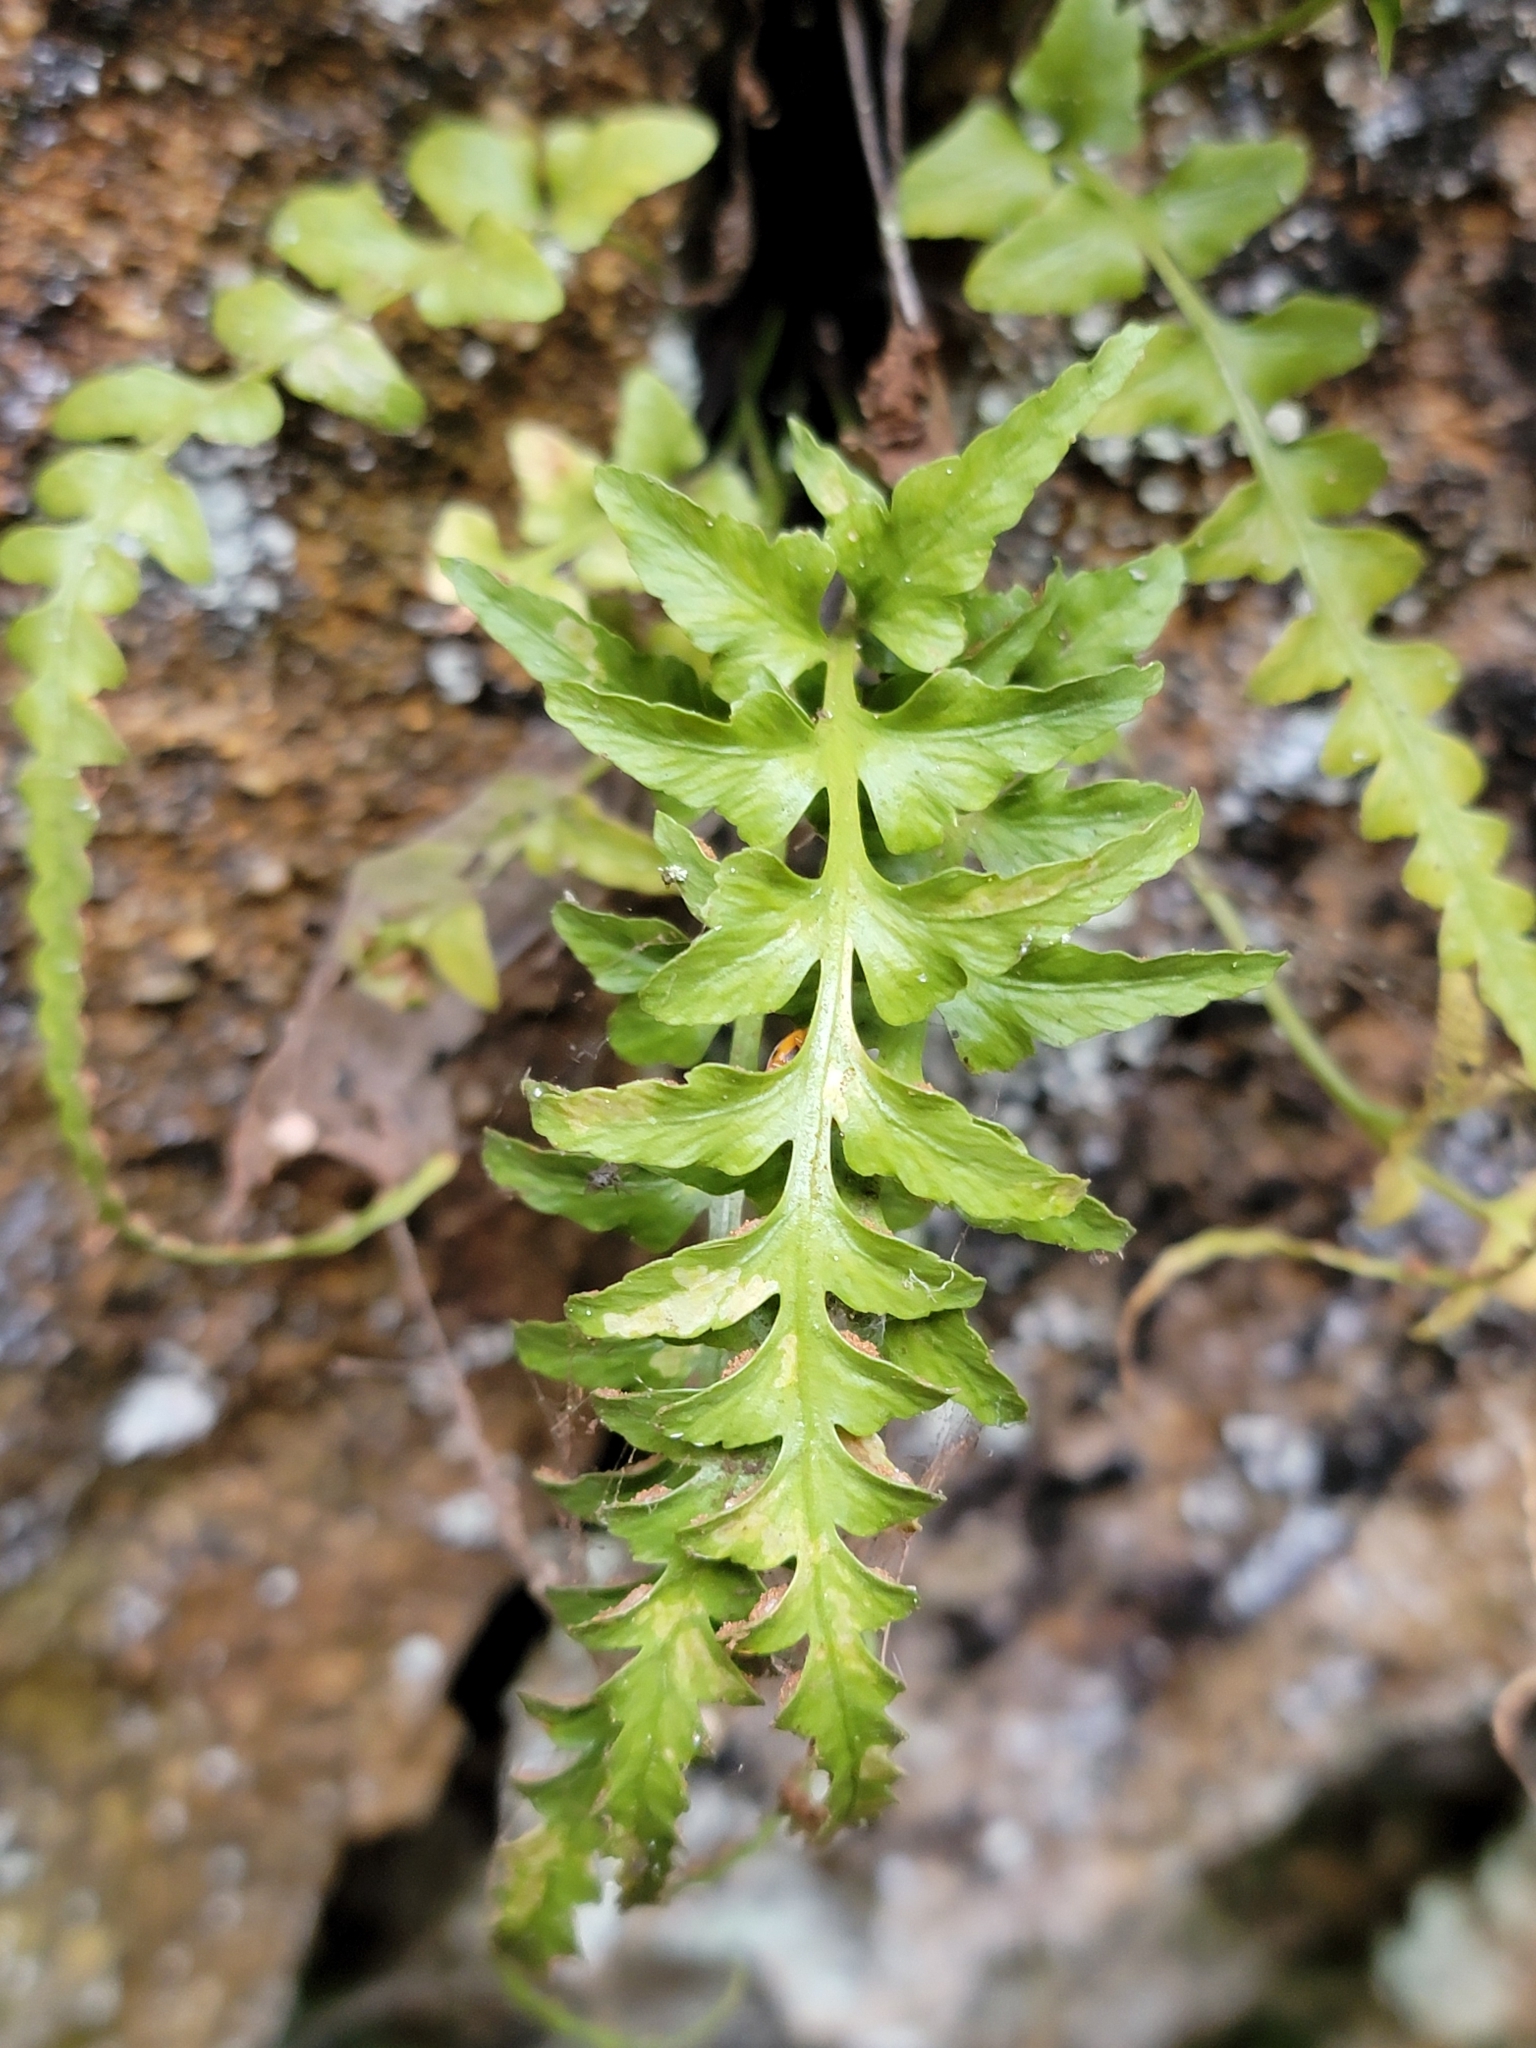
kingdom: Plantae
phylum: Tracheophyta
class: Polypodiopsida
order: Polypodiales
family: Aspleniaceae
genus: Asplenium
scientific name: Asplenium pinnatifidum
